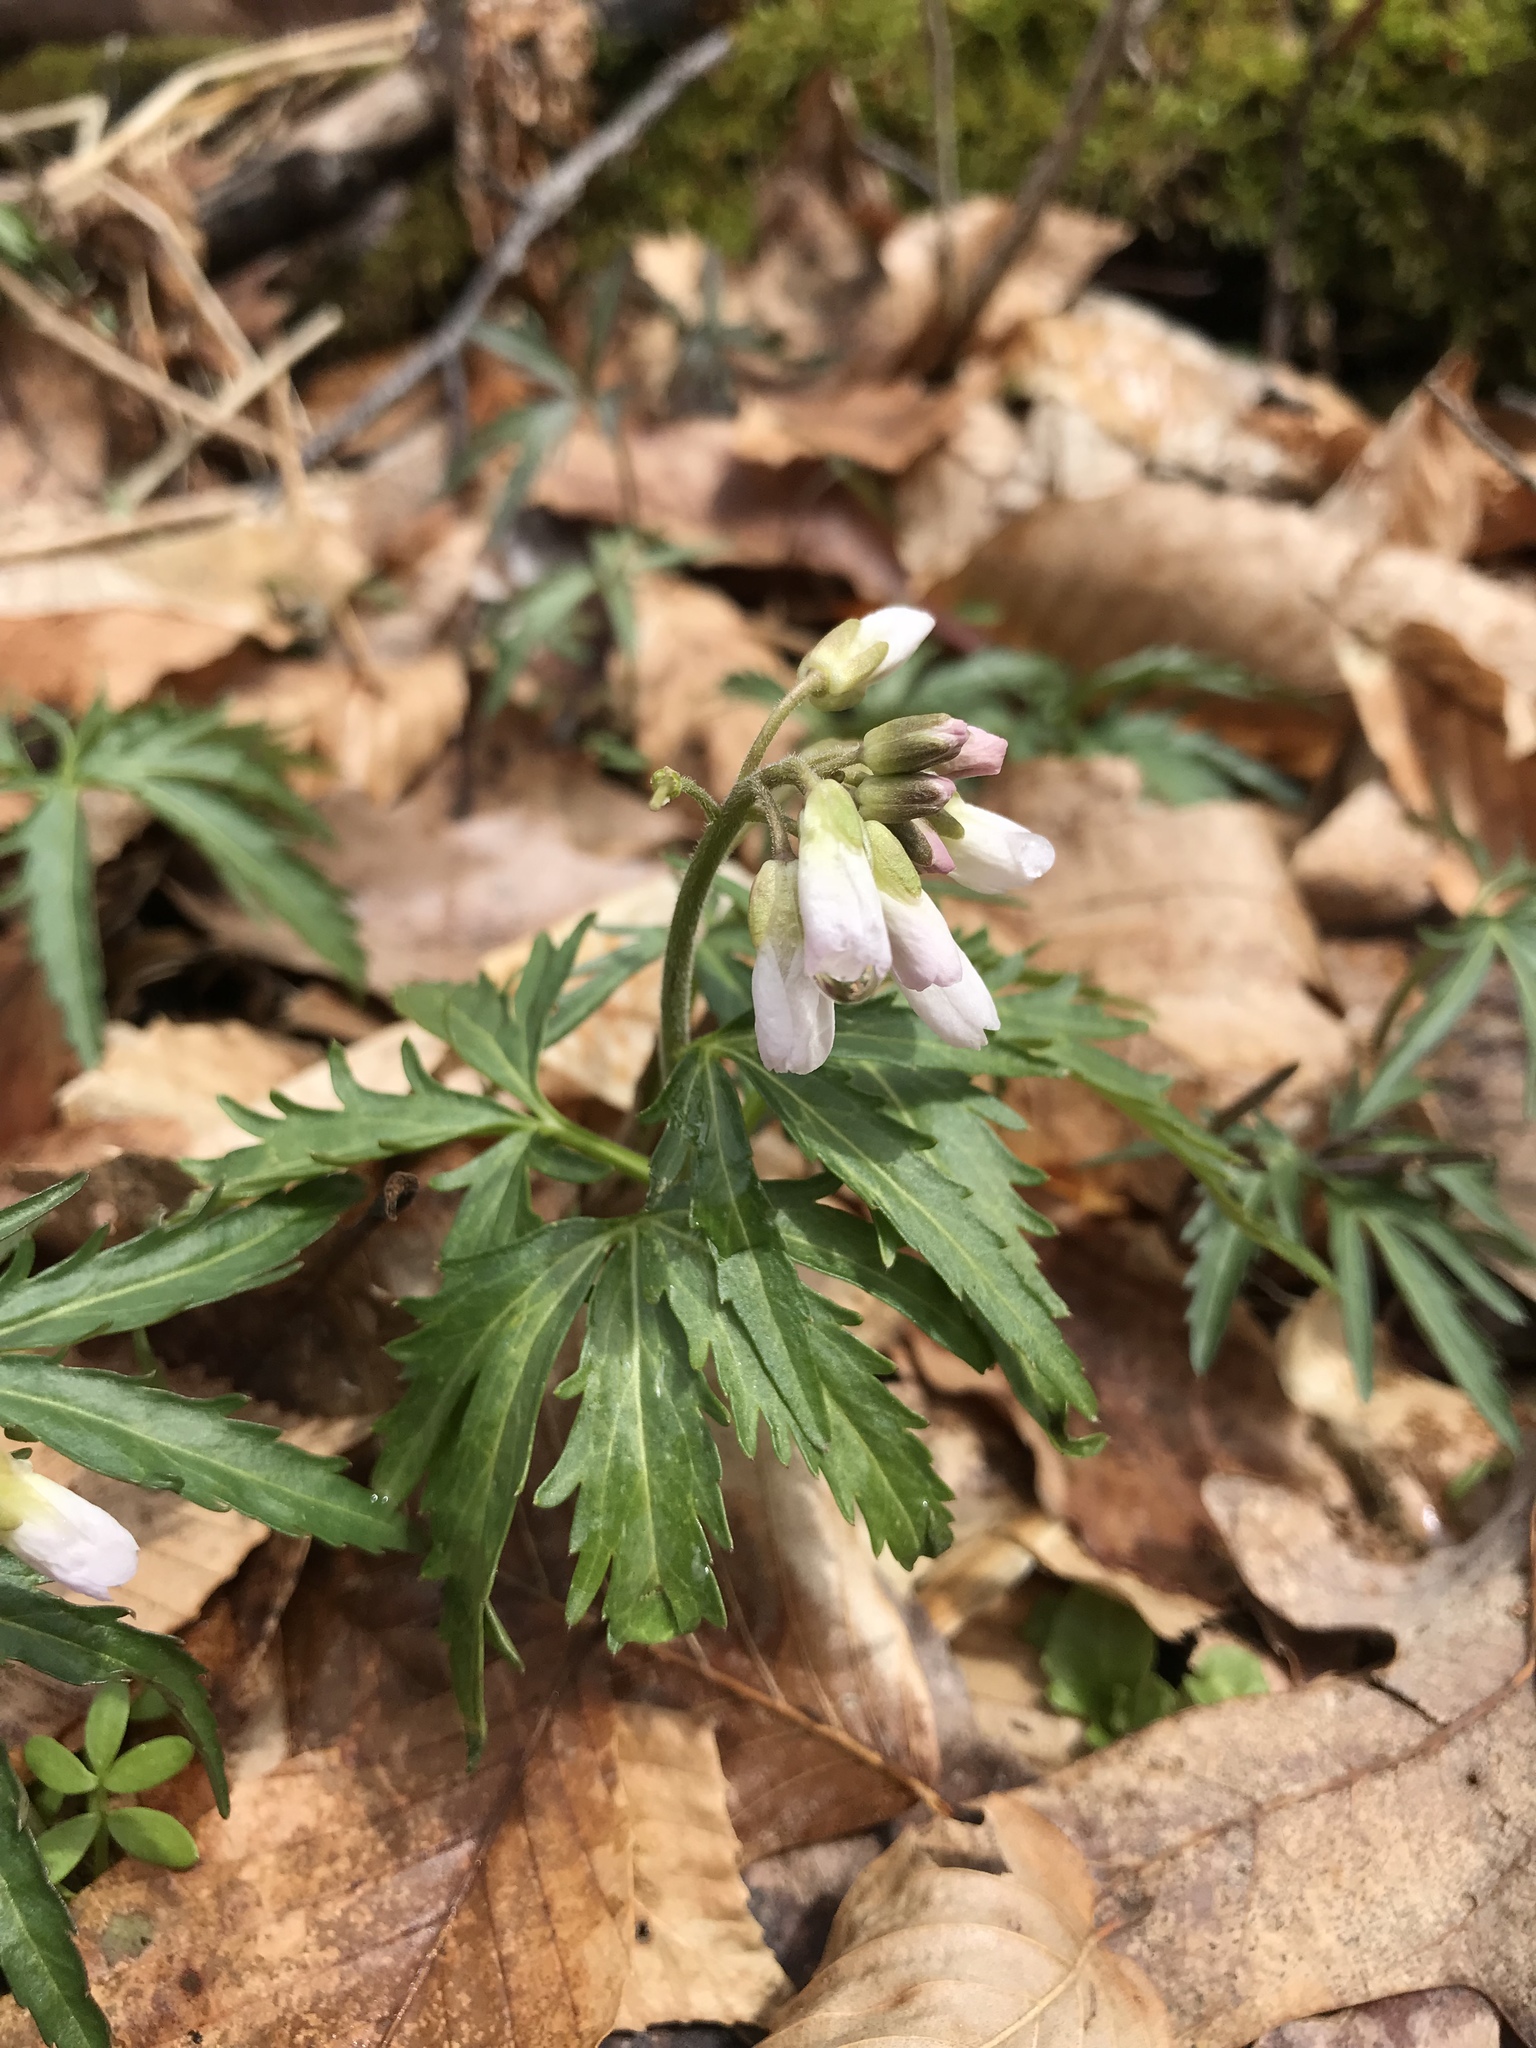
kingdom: Plantae
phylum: Tracheophyta
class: Magnoliopsida
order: Brassicales
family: Brassicaceae
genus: Cardamine
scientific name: Cardamine concatenata
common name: Cut-leaf toothcup
